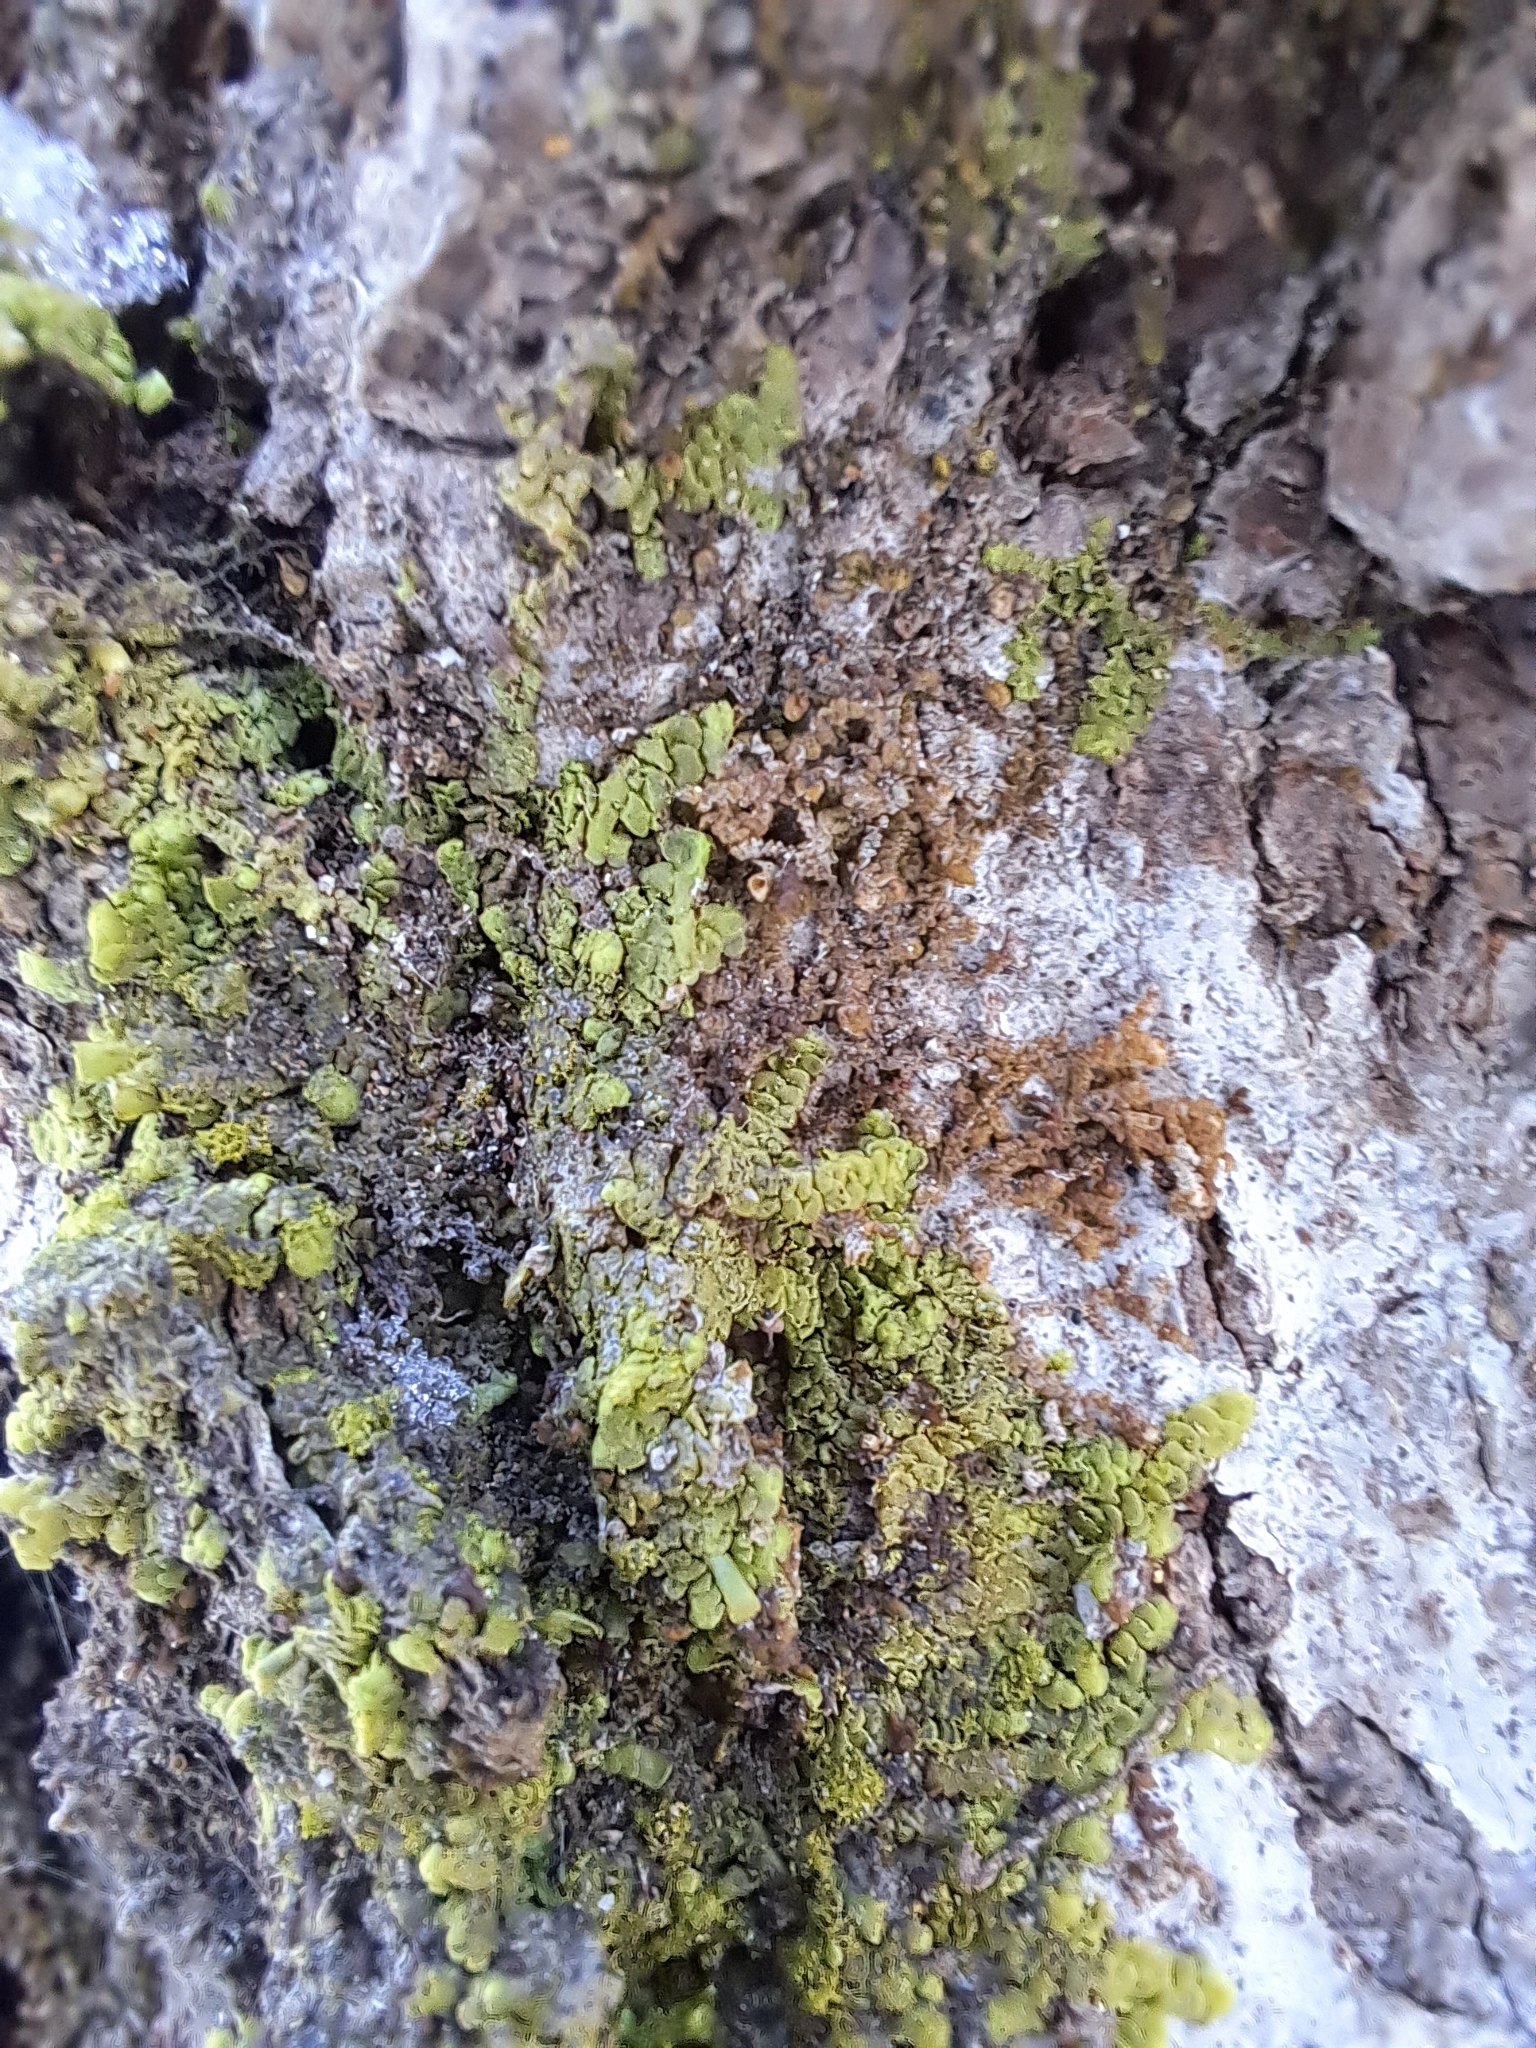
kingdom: Plantae
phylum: Marchantiophyta
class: Jungermanniopsida
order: Porellales
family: Radulaceae
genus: Radula
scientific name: Radula complanata
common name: Flat-leaved scalewort
